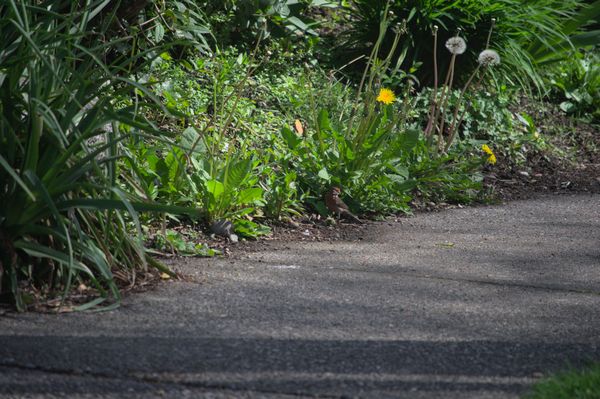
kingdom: Animalia
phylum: Chordata
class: Aves
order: Passeriformes
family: Fringillidae
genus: Haemorhous
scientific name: Haemorhous mexicanus
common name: House finch
